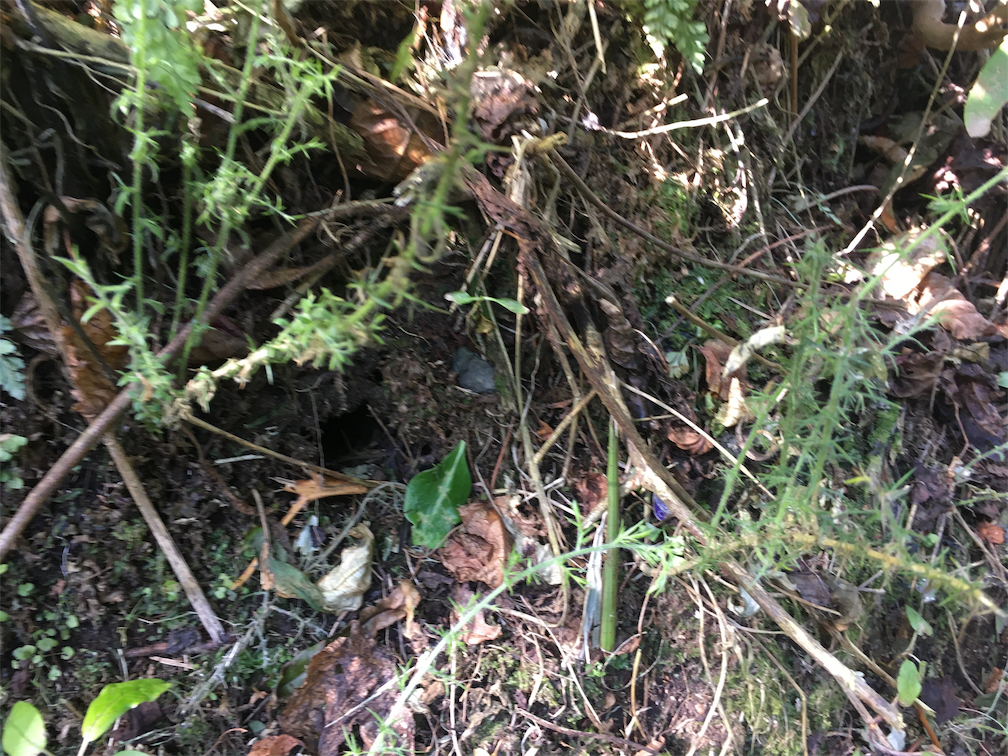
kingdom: Plantae
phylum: Tracheophyta
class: Magnoliopsida
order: Fabales
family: Fabaceae
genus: Ulex
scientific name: Ulex europaeus
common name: Common gorse
